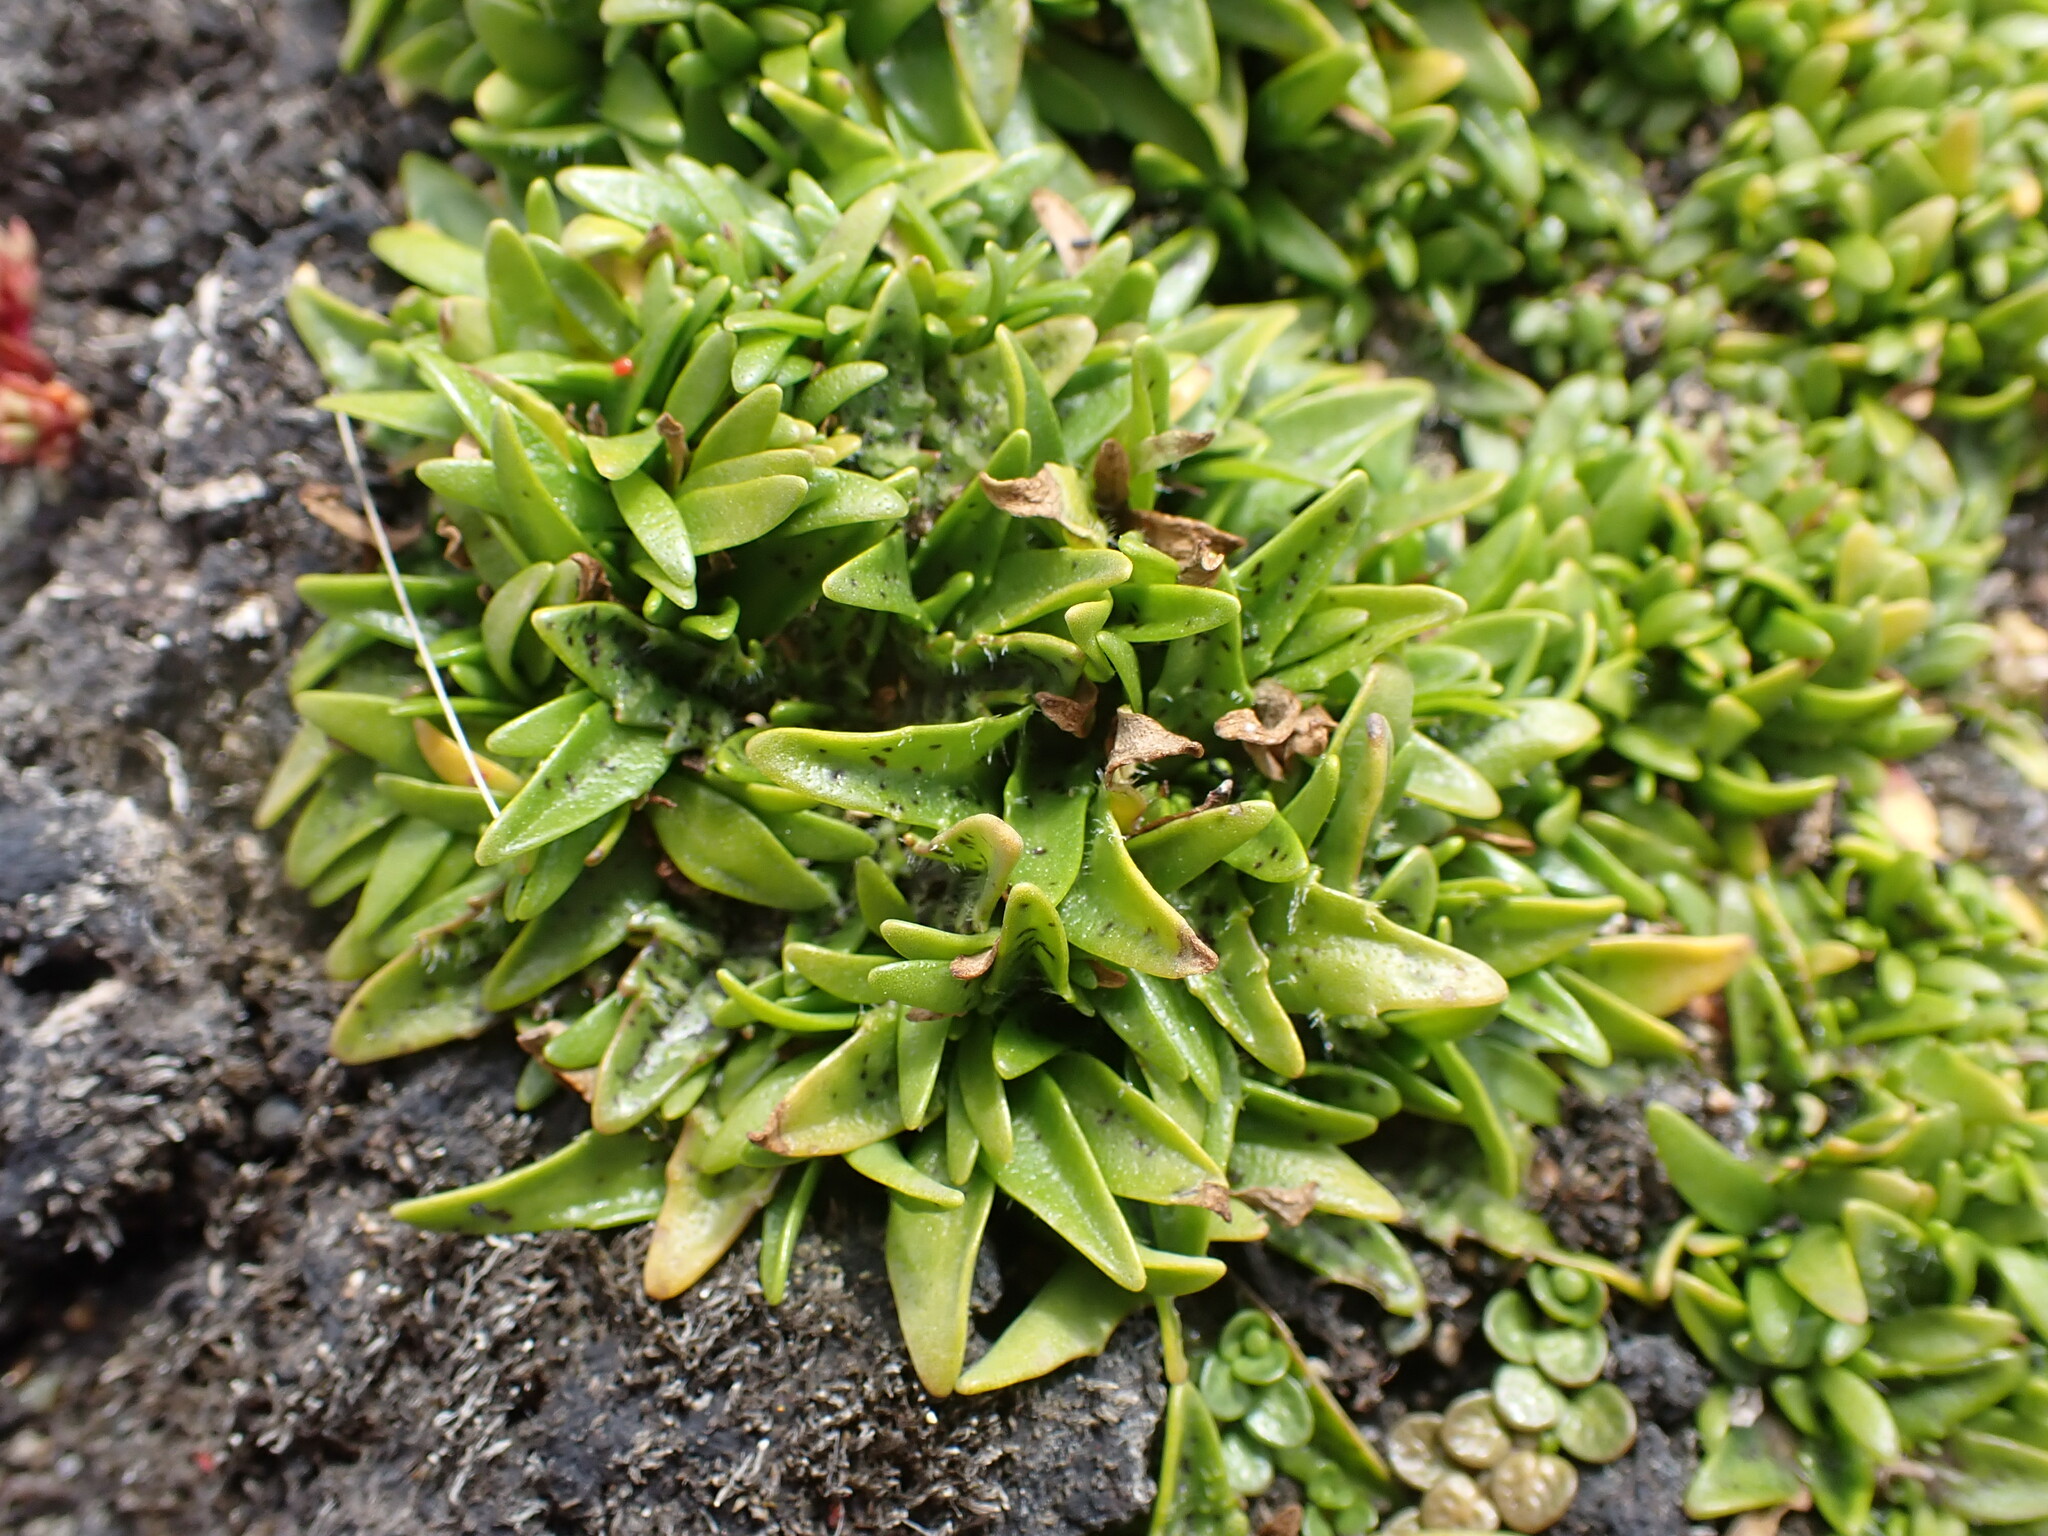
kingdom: Plantae
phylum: Tracheophyta
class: Magnoliopsida
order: Lamiales
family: Plantaginaceae
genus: Plantago
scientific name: Plantago triandra
